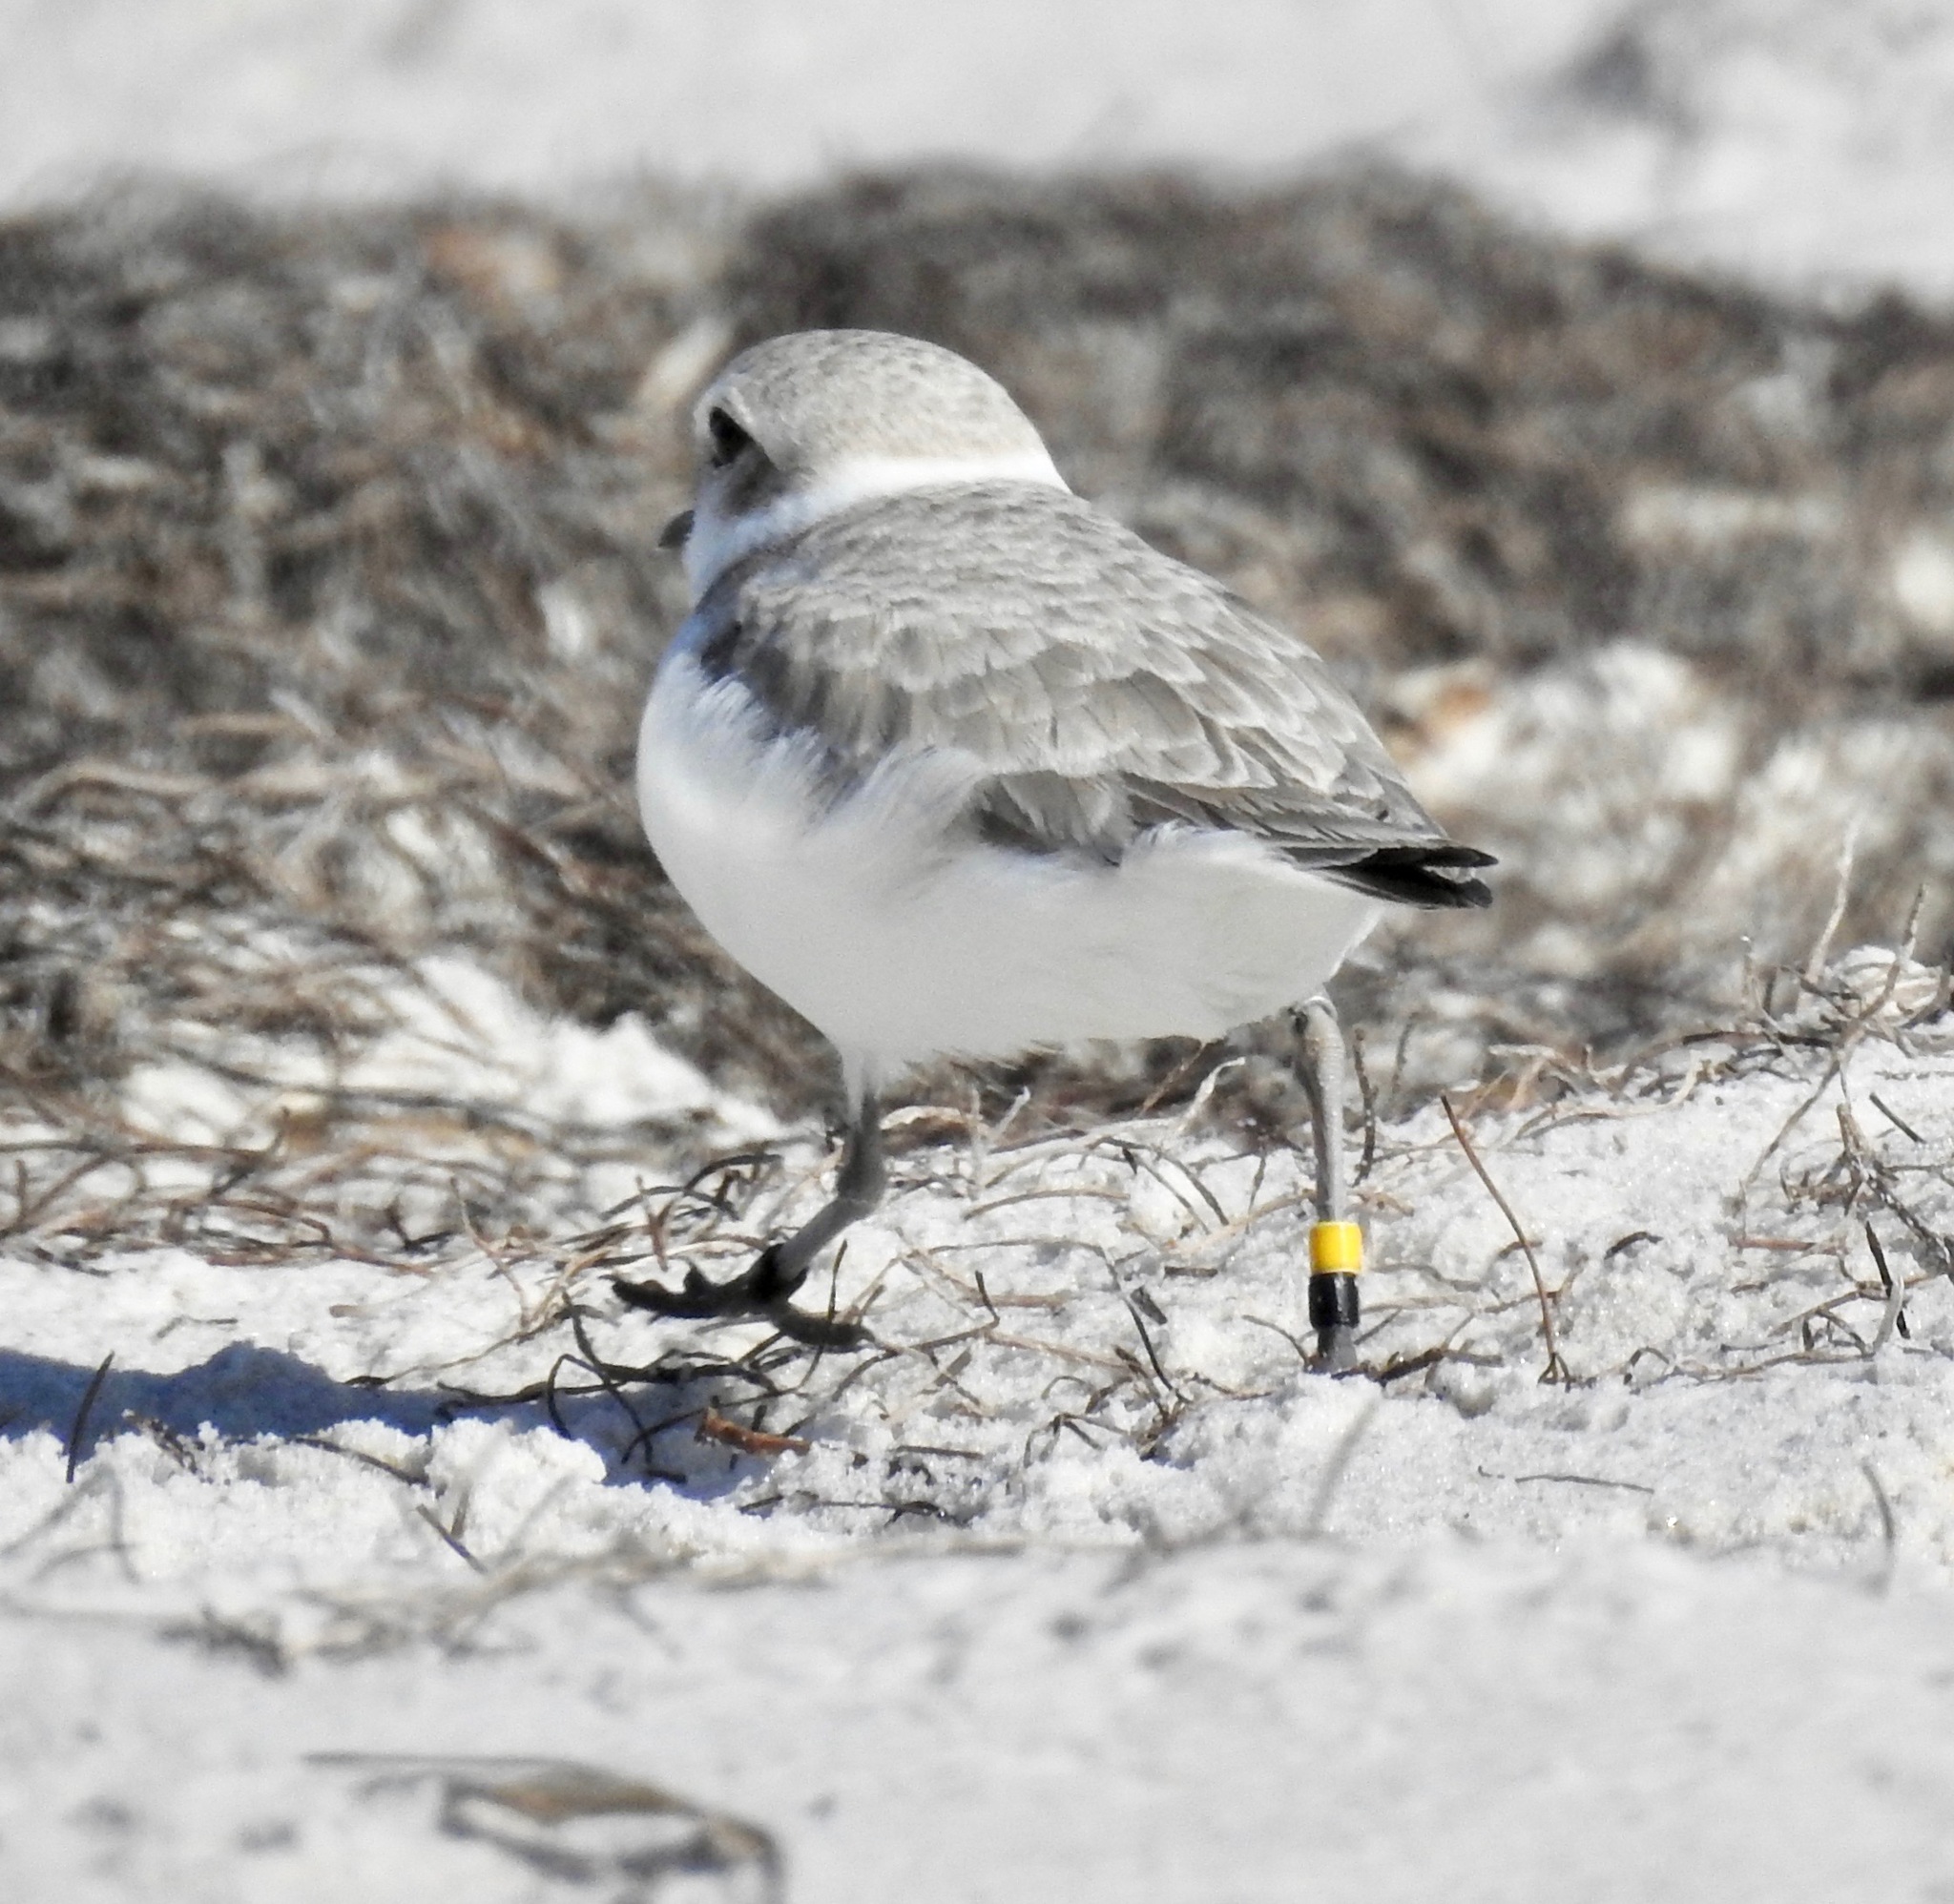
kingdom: Animalia
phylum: Chordata
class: Aves
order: Charadriiformes
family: Charadriidae
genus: Anarhynchus
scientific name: Anarhynchus
